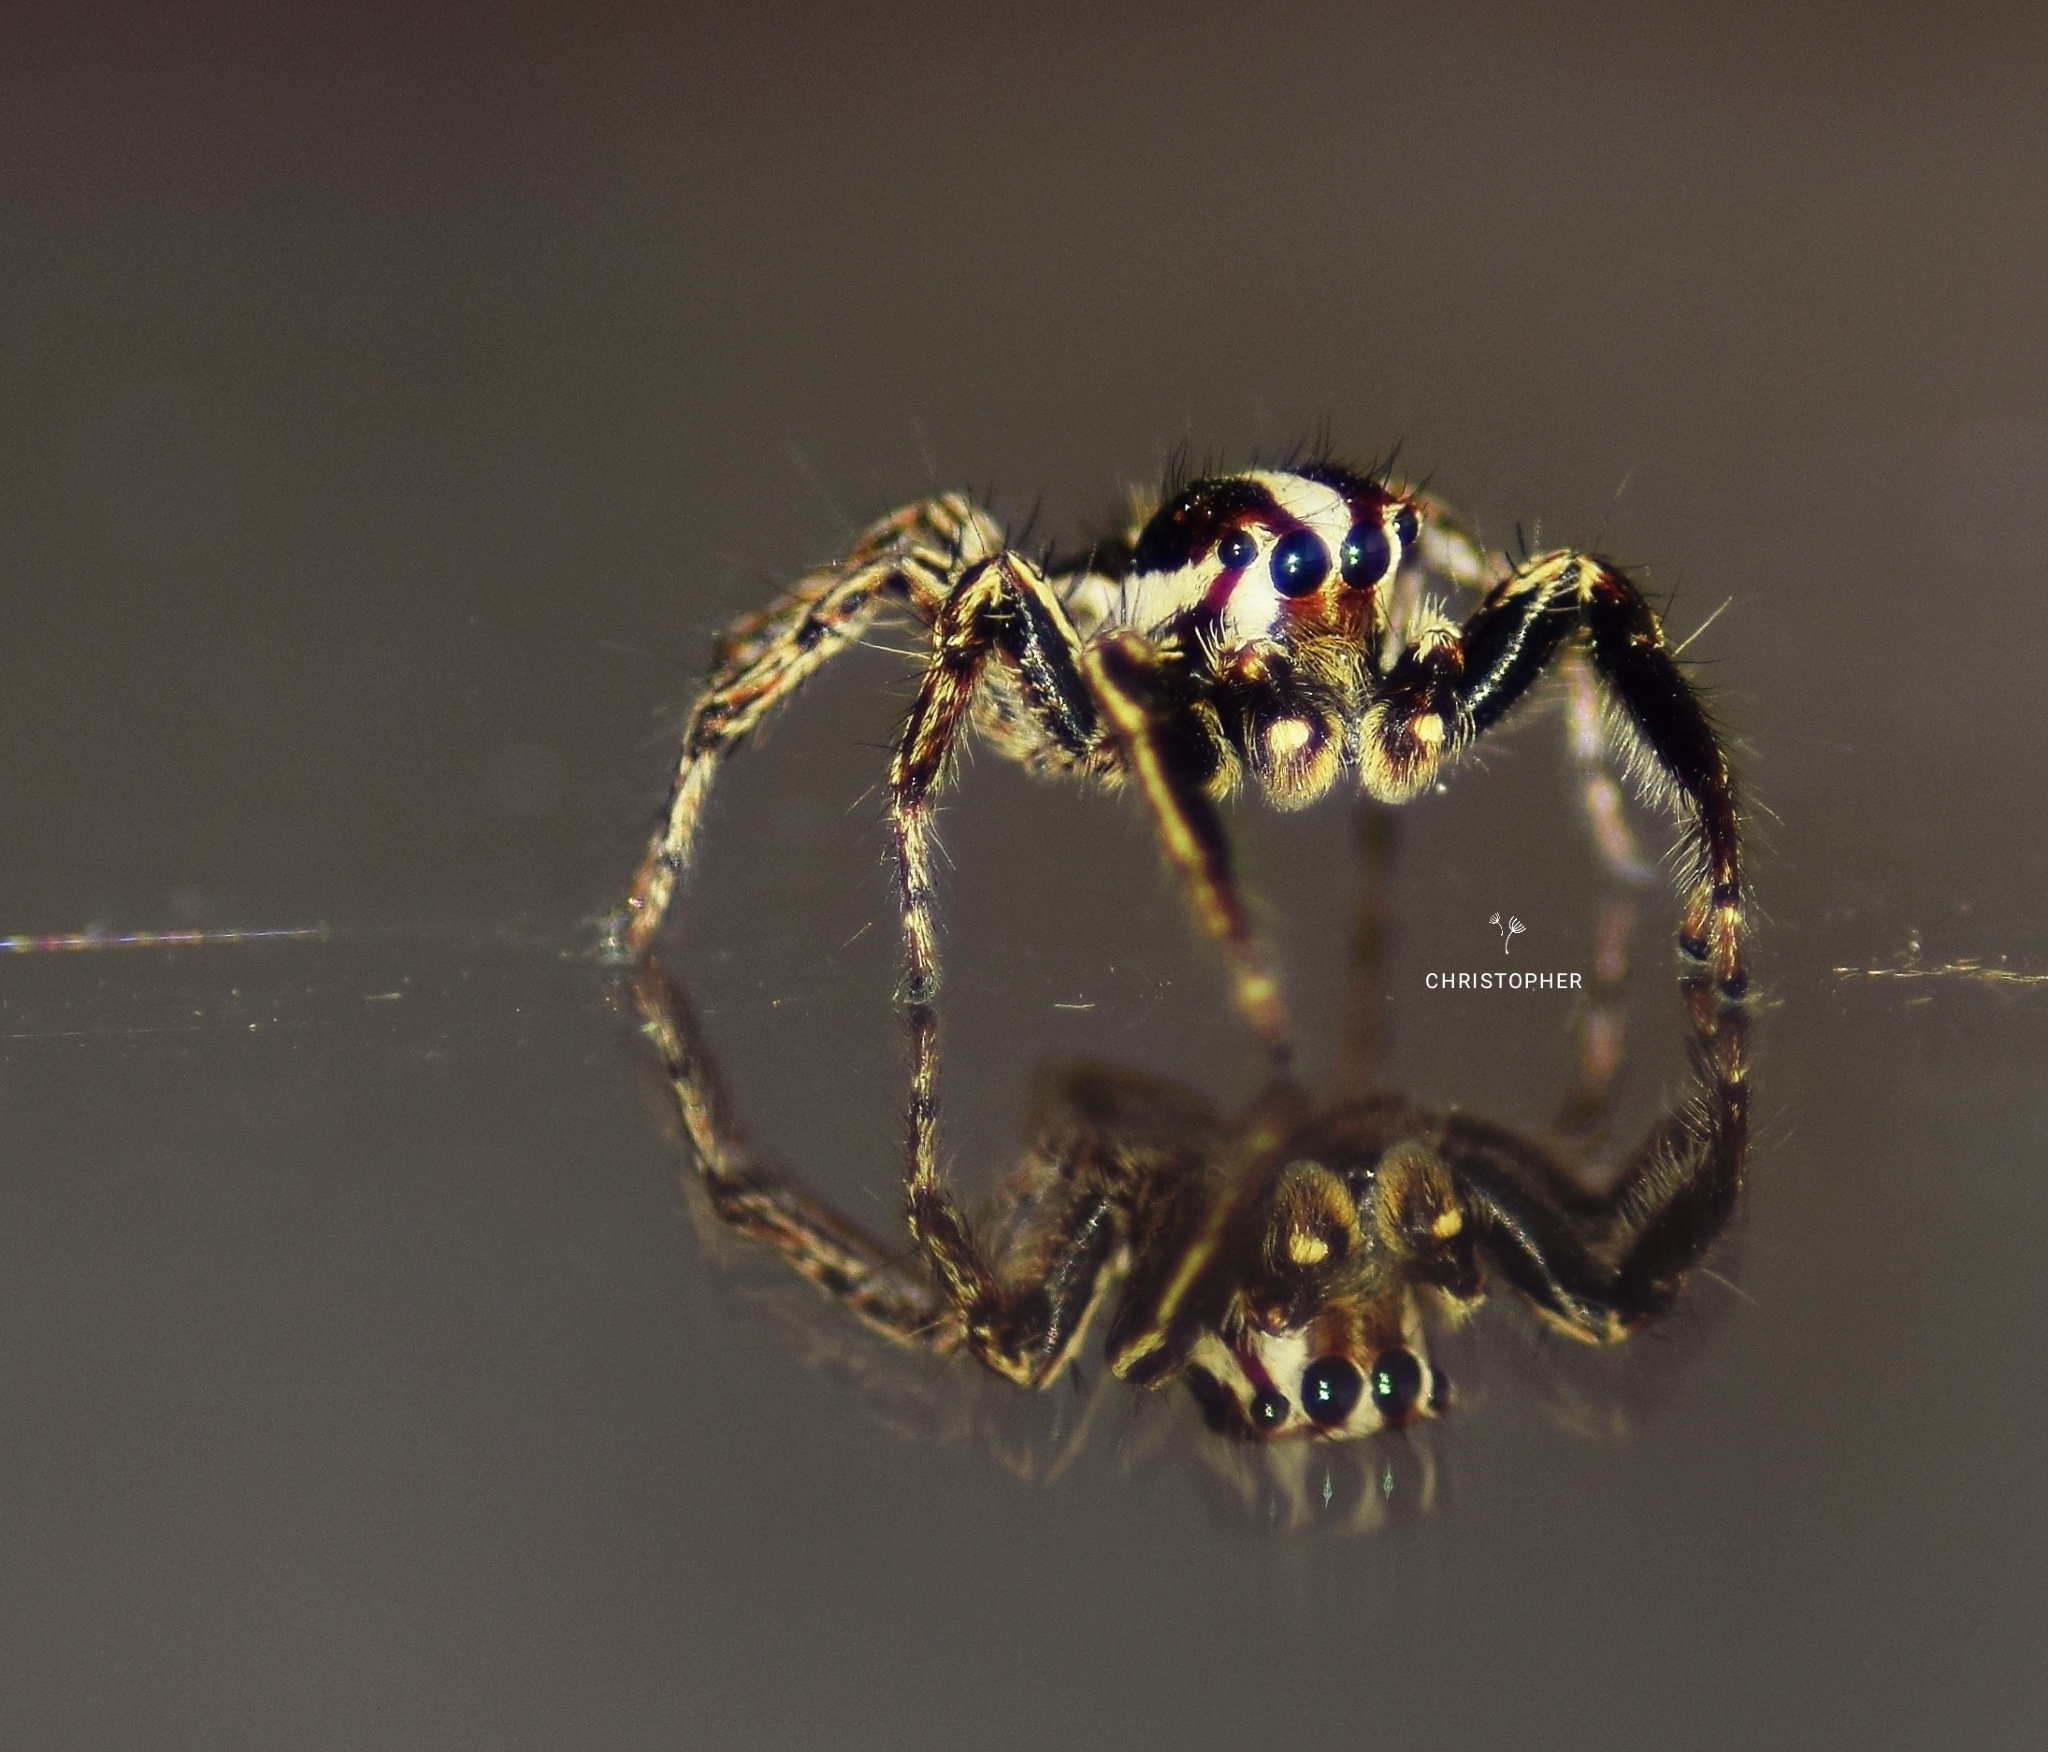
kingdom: Animalia
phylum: Arthropoda
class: Arachnida
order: Araneae
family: Salticidae
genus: Plexippus
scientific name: Plexippus paykulli
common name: Pantropical jumper
